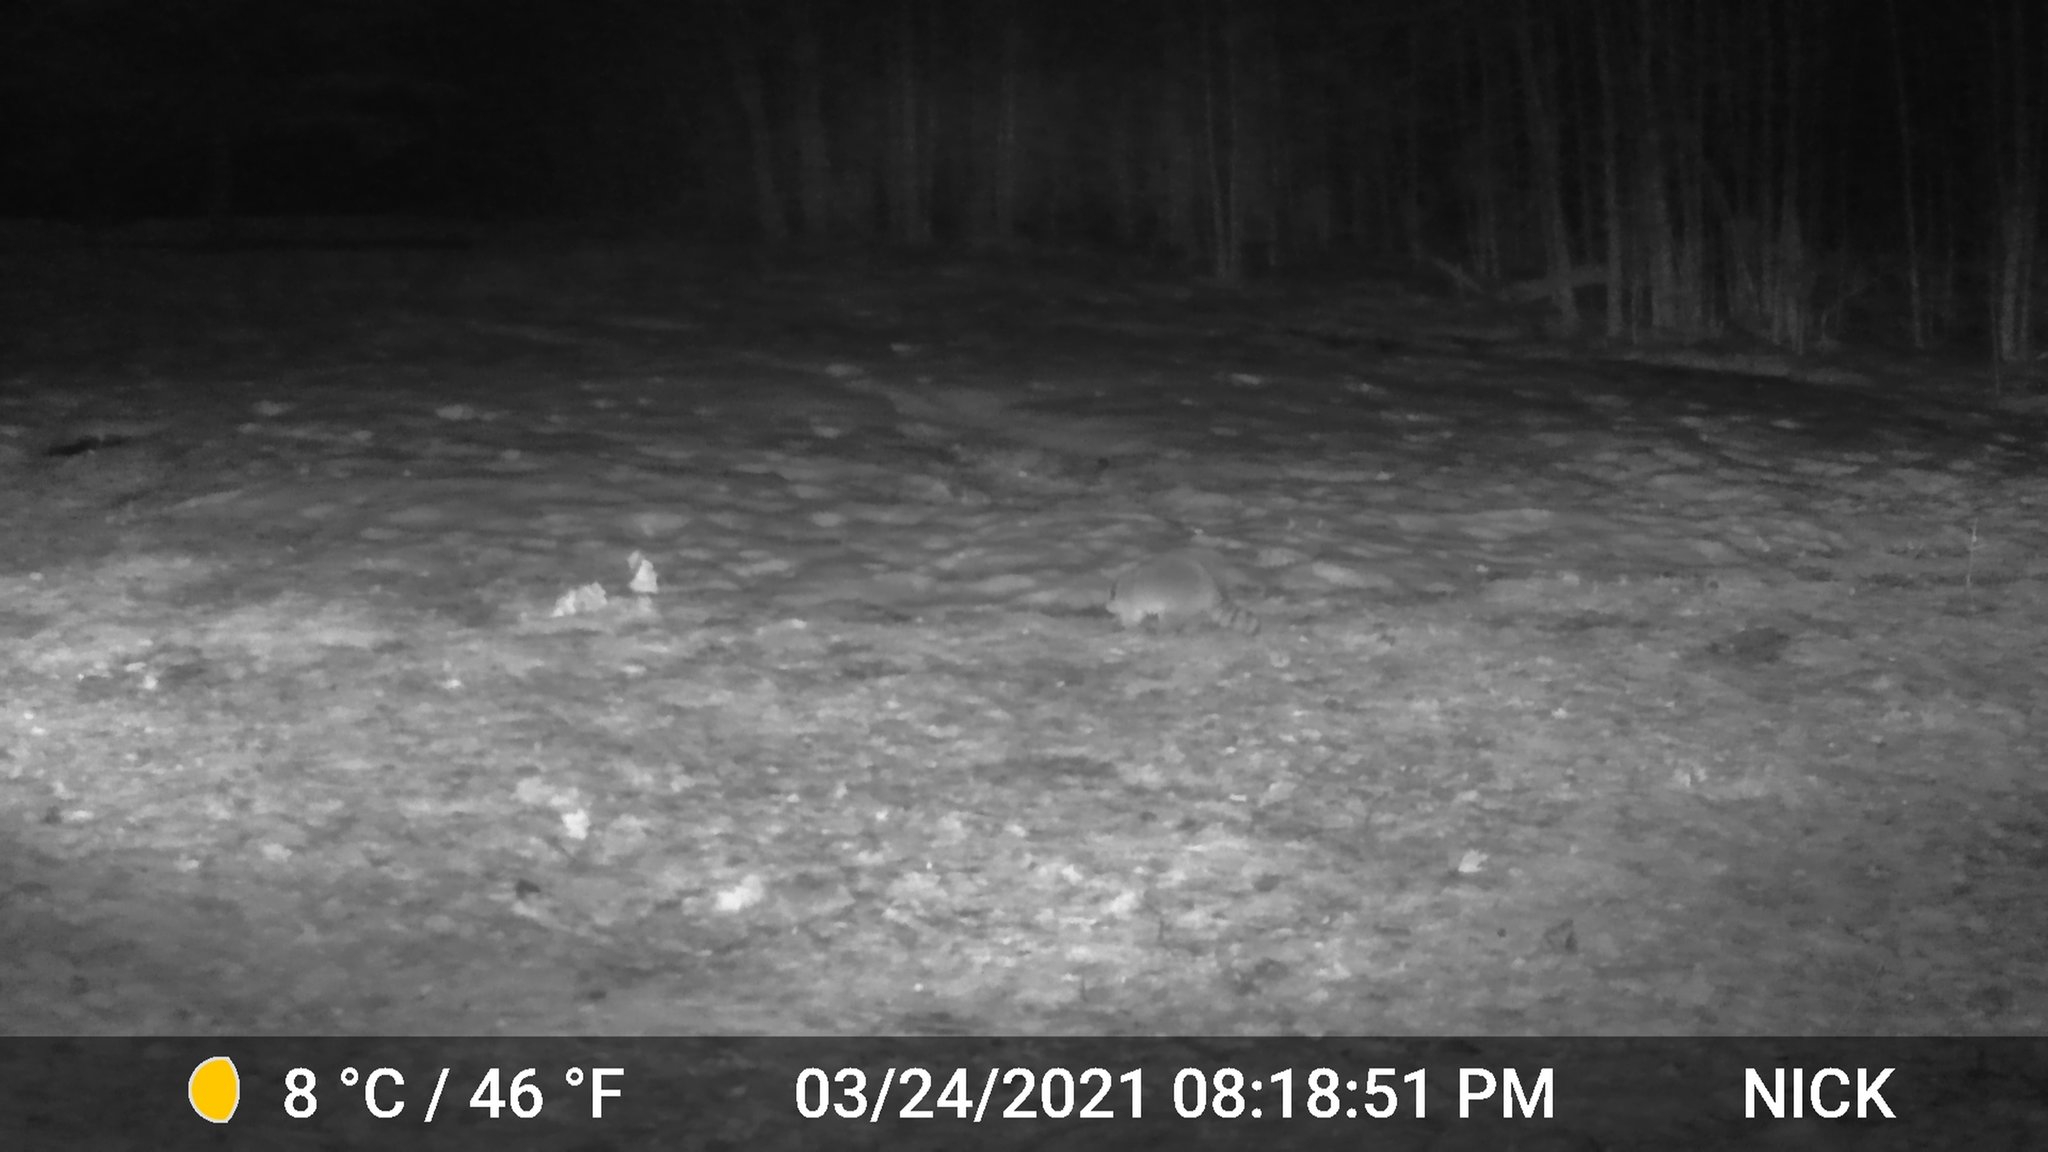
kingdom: Animalia
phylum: Chordata
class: Mammalia
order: Carnivora
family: Procyonidae
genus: Procyon
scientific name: Procyon lotor
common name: Raccoon
